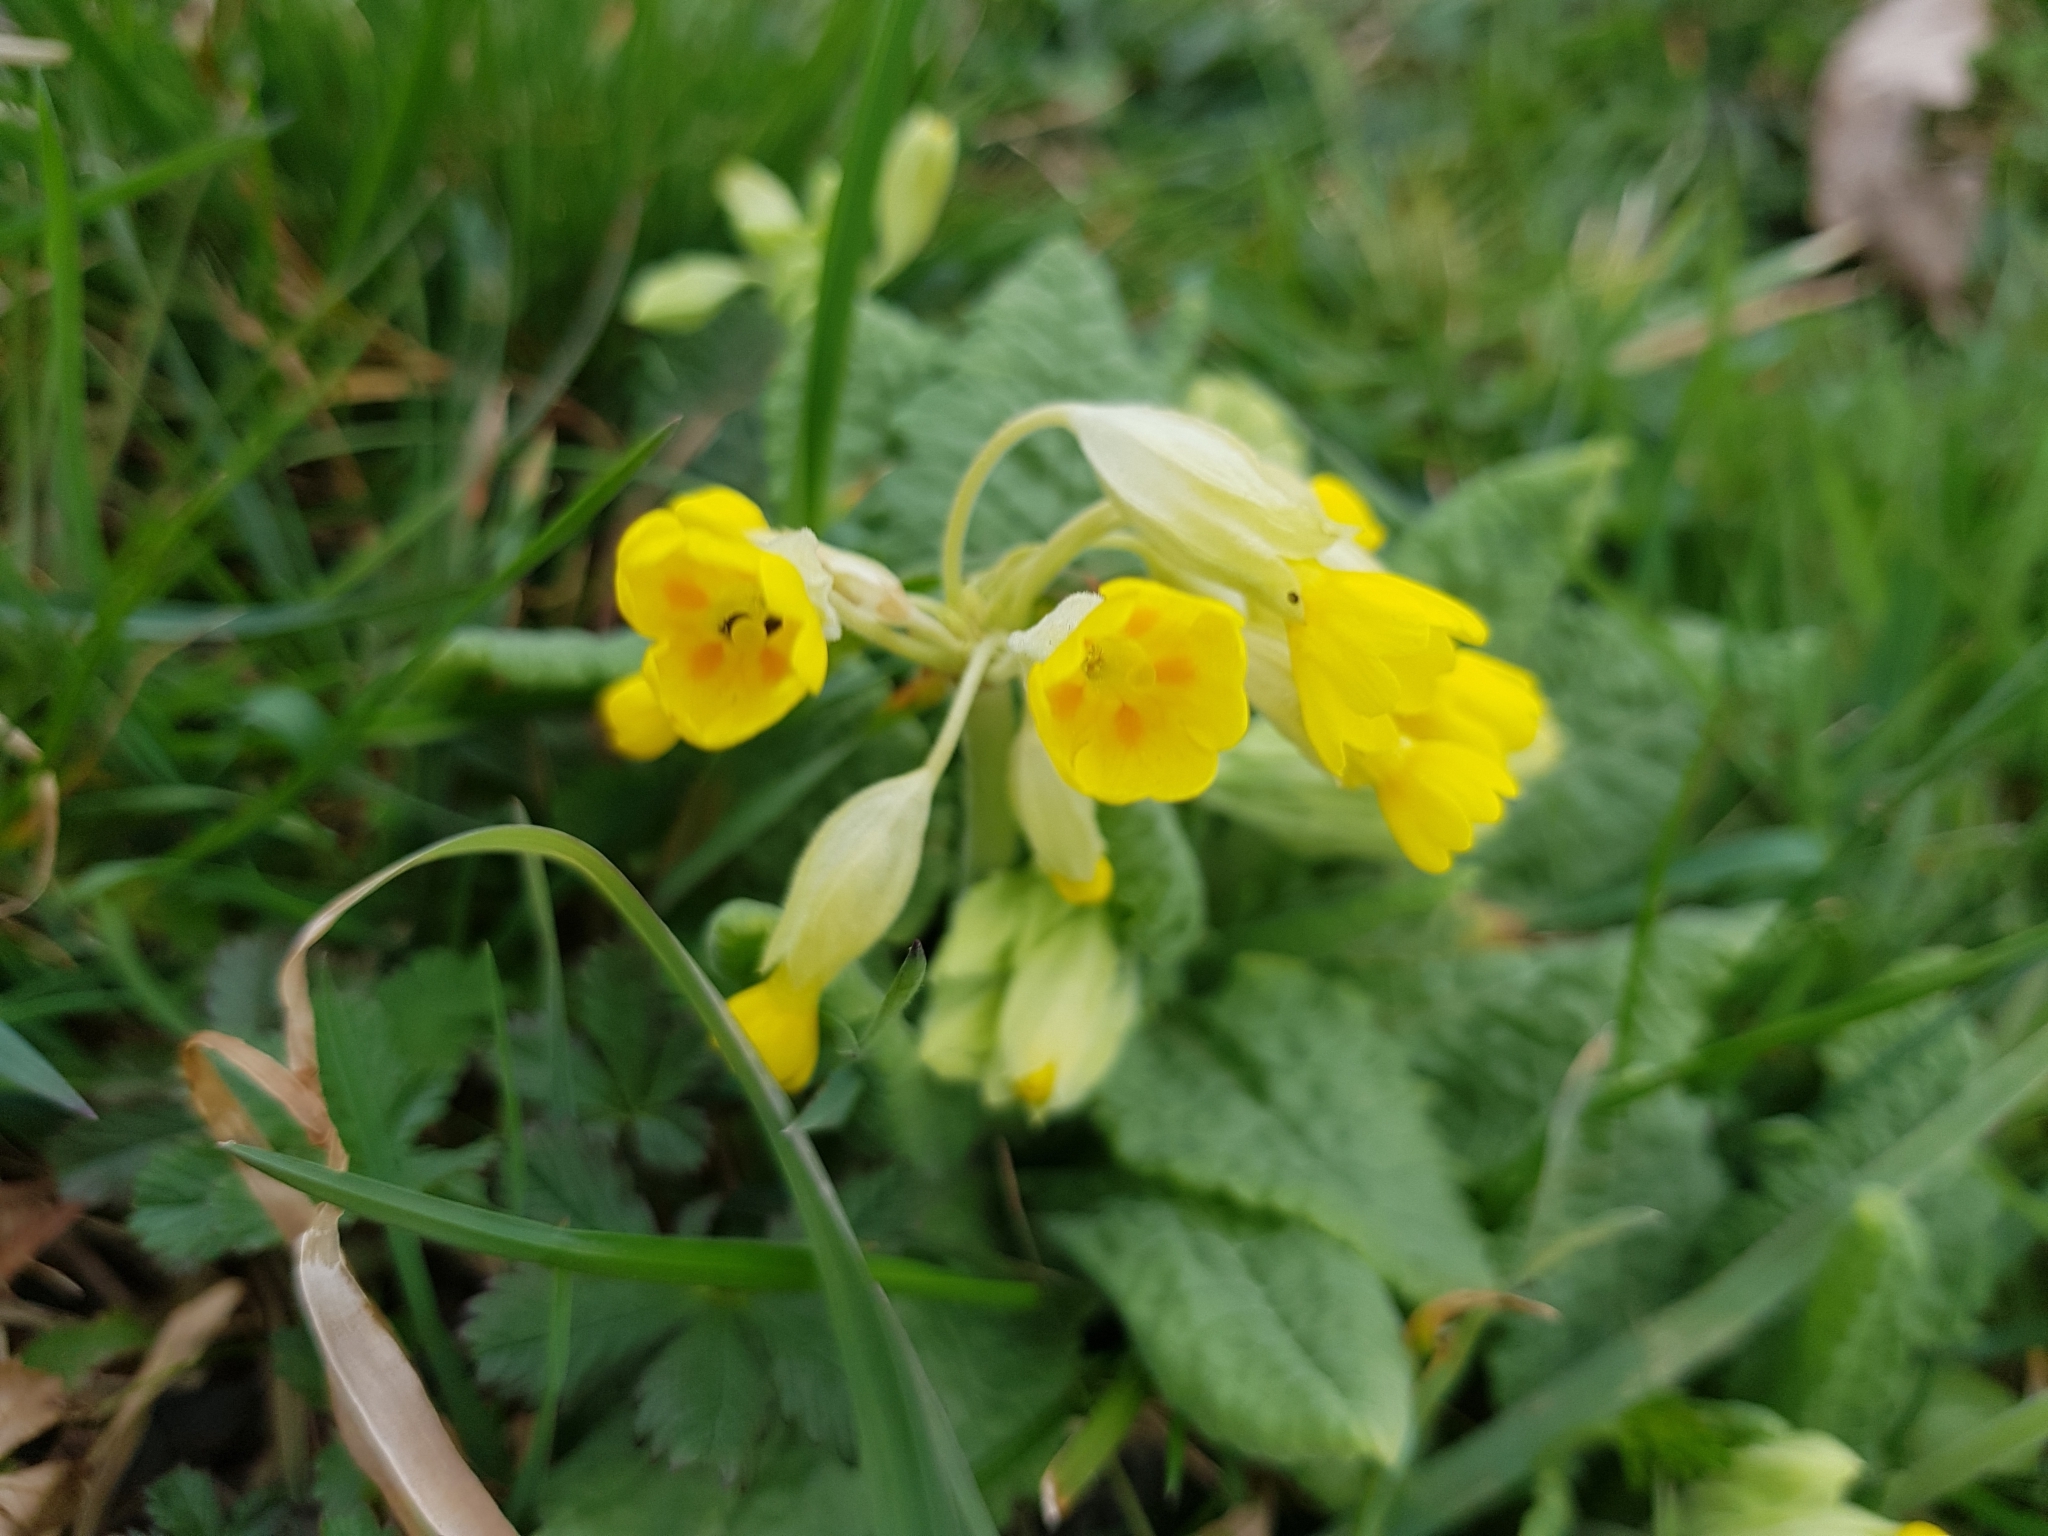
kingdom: Plantae
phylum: Tracheophyta
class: Magnoliopsida
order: Ericales
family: Primulaceae
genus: Primula
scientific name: Primula veris
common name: Cowslip
